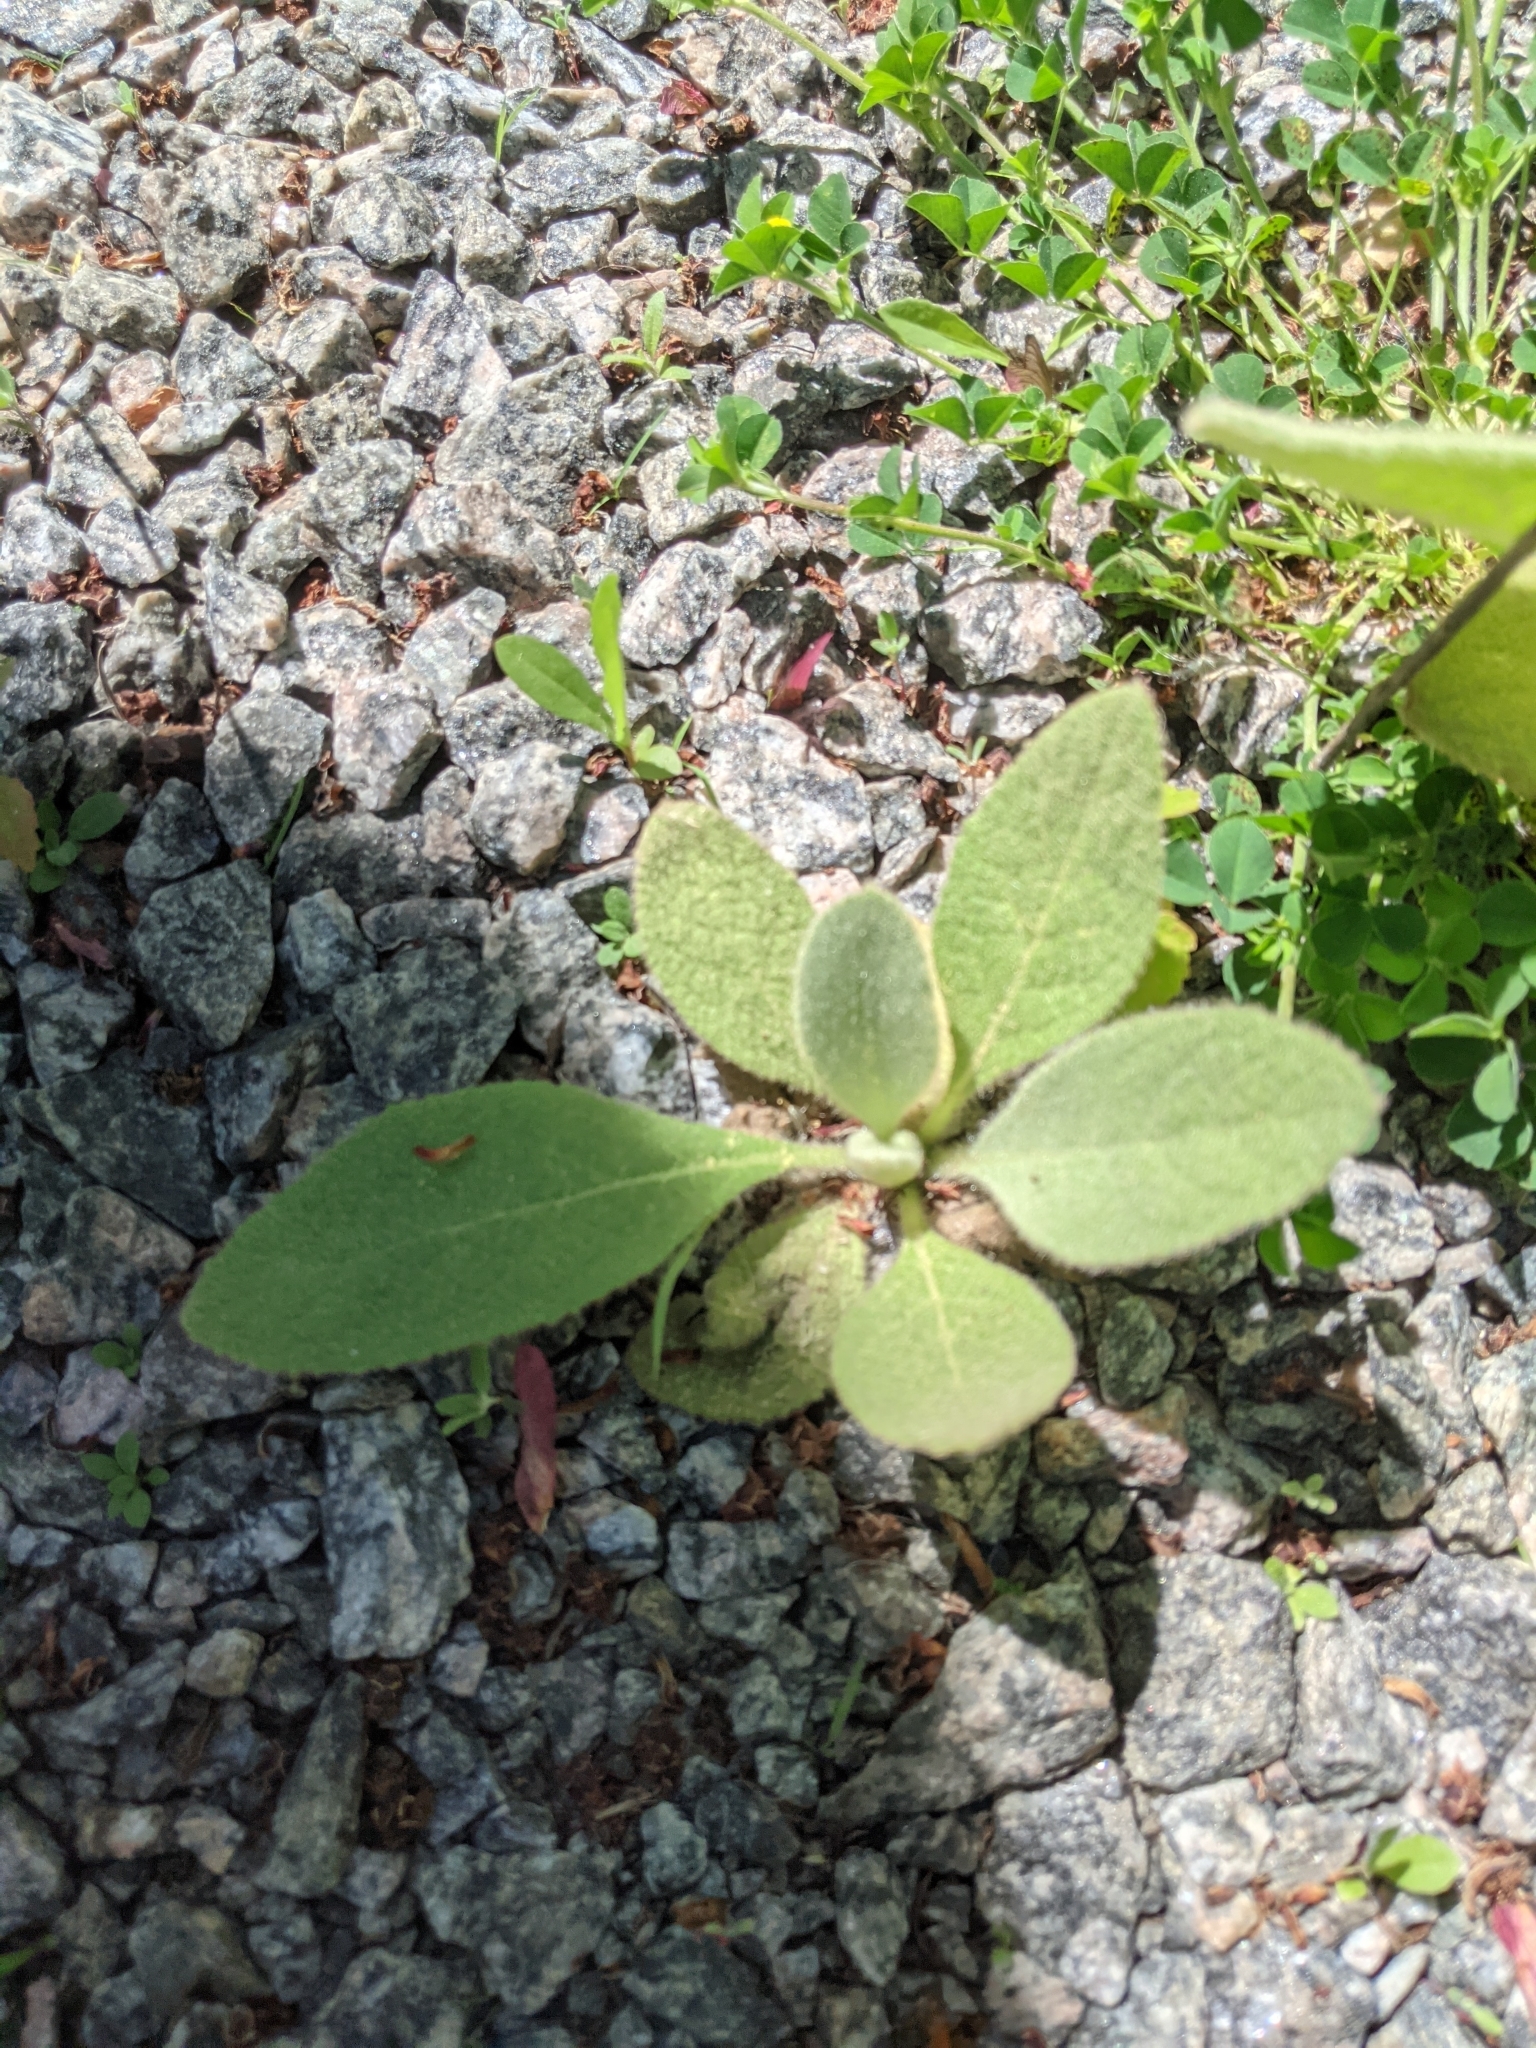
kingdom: Plantae
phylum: Tracheophyta
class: Magnoliopsida
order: Lamiales
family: Scrophulariaceae
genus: Verbascum
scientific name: Verbascum thapsus
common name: Common mullein
